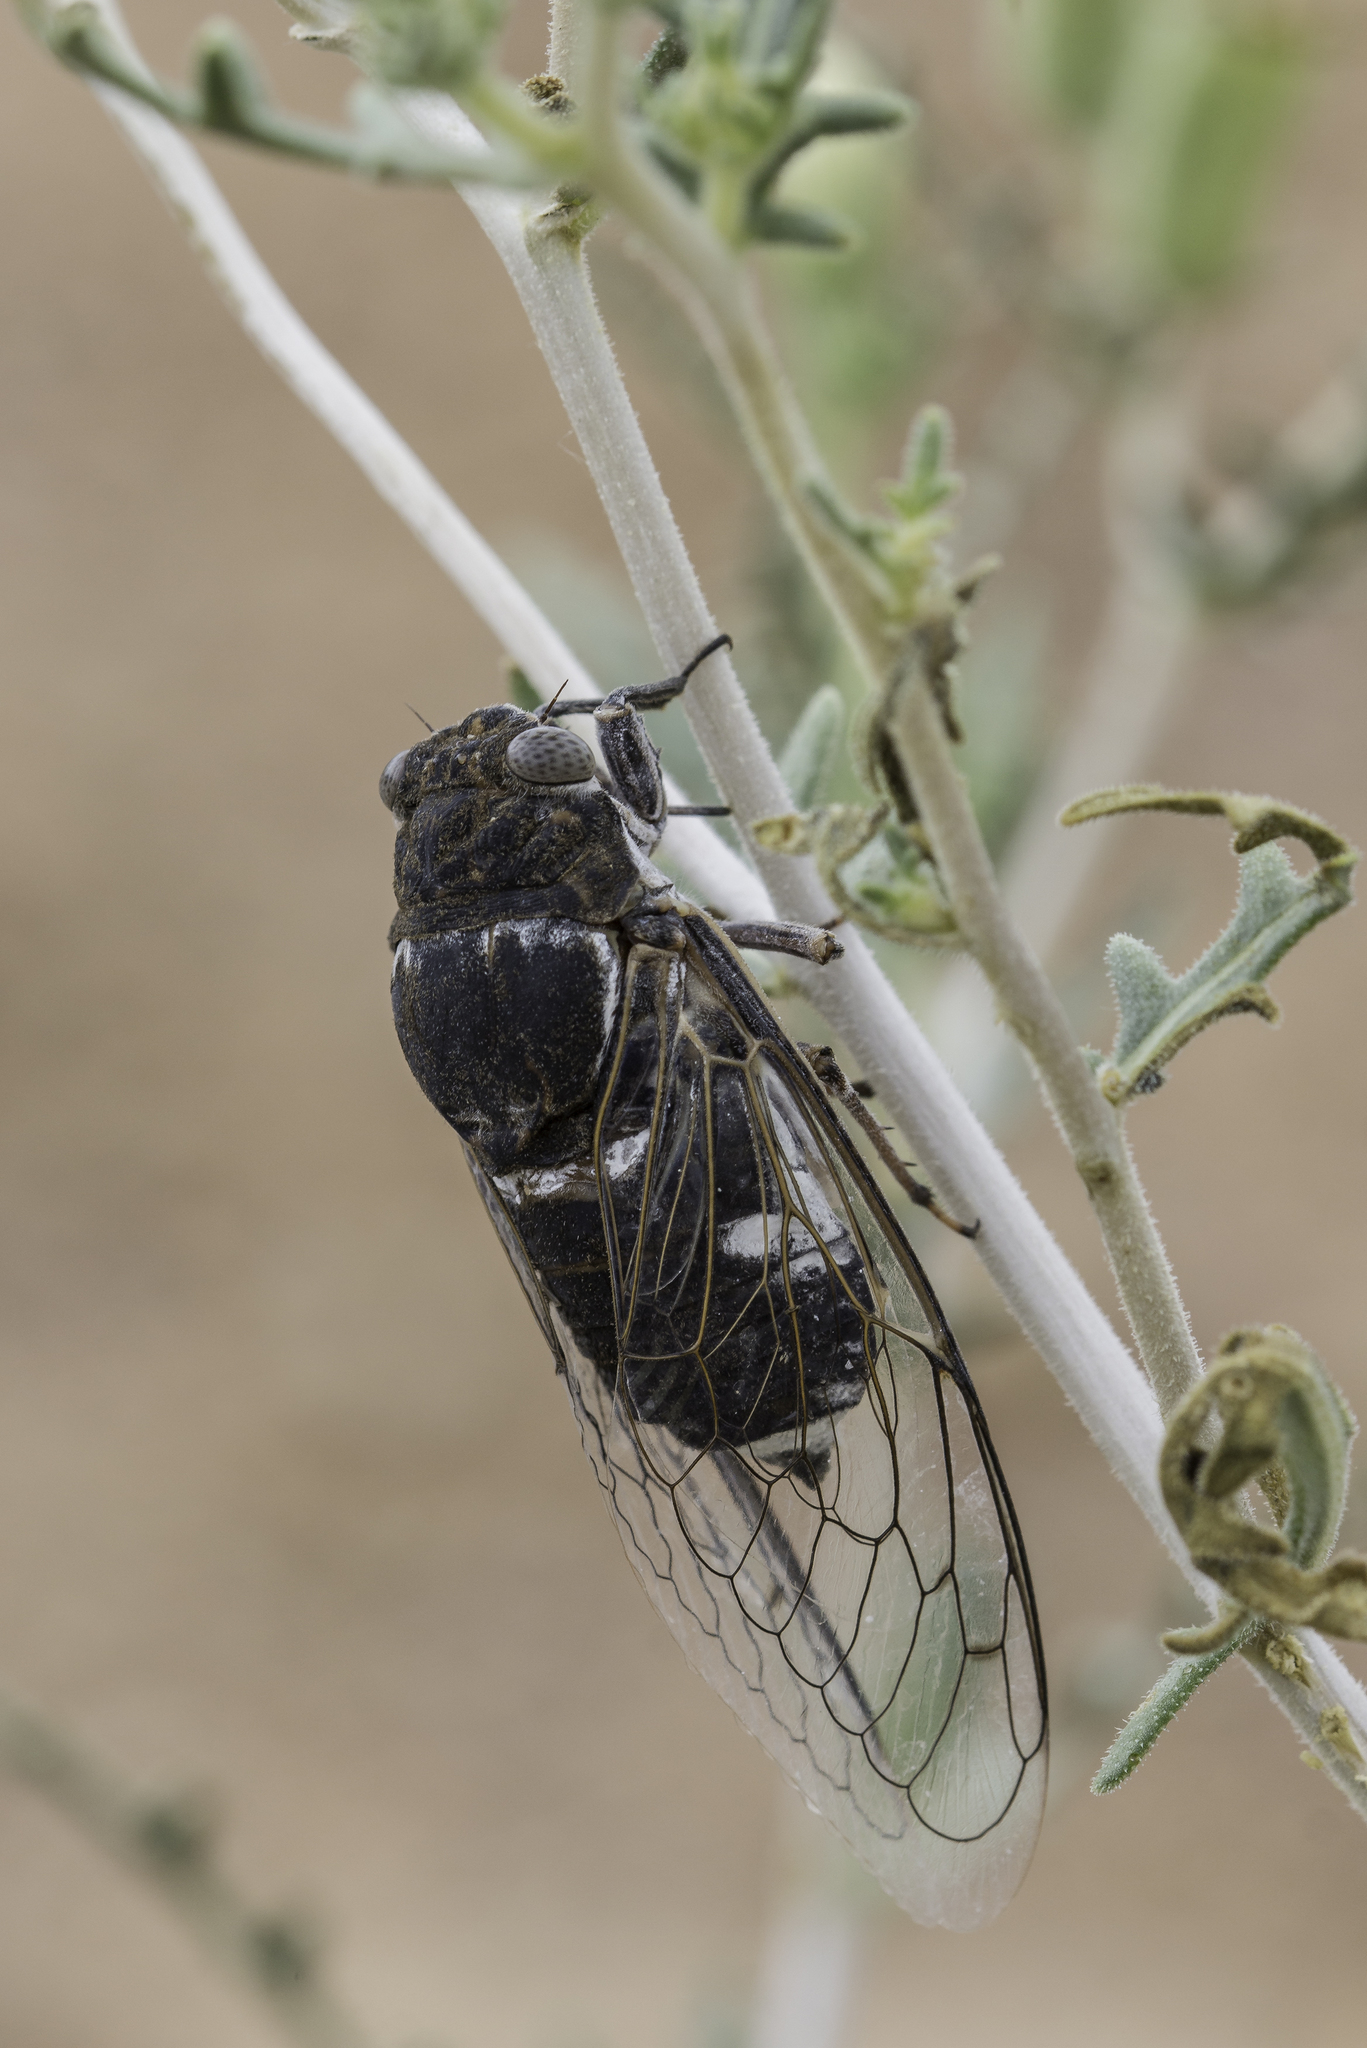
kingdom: Animalia
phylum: Arthropoda
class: Insecta
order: Hemiptera
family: Cicadidae
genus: Cacama
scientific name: Cacama valvata
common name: Cactus dodger
